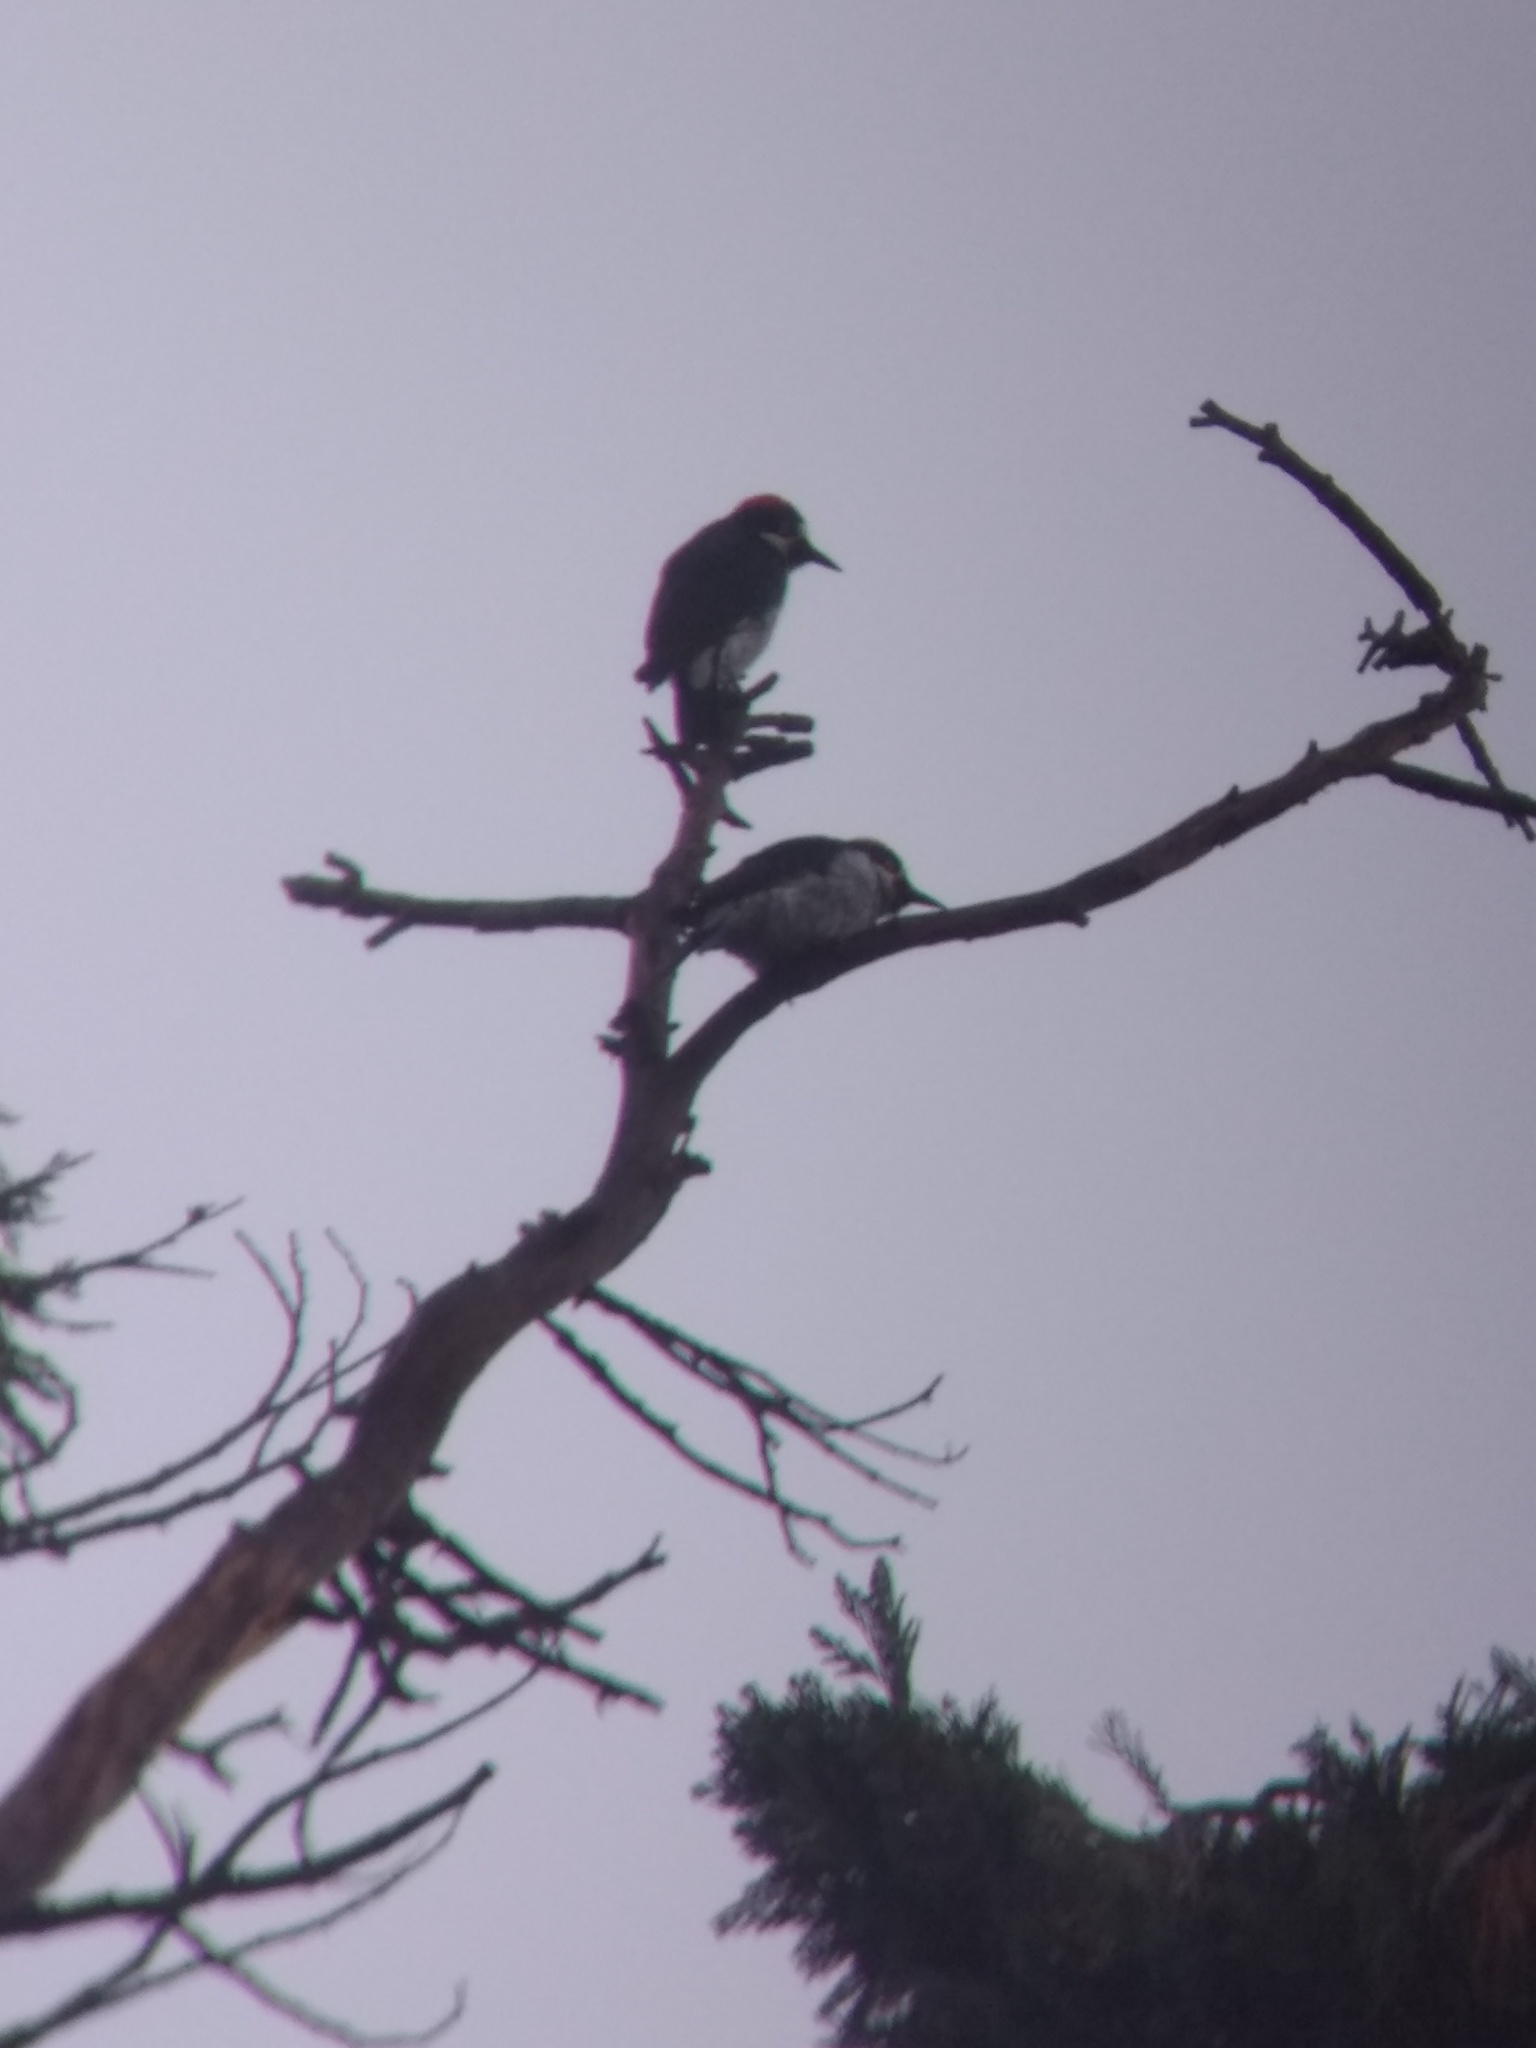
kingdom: Animalia
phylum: Chordata
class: Aves
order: Piciformes
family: Picidae
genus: Melanerpes
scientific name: Melanerpes formicivorus
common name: Acorn woodpecker
